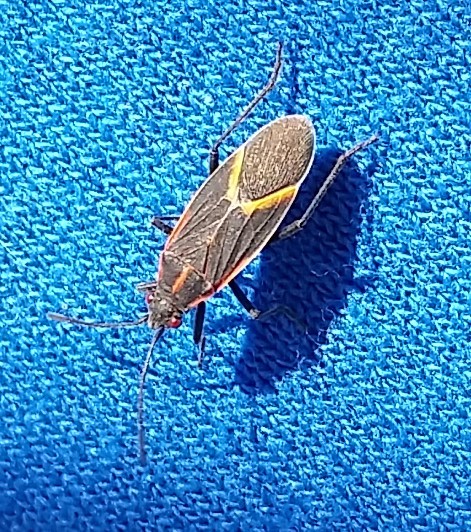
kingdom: Animalia
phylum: Arthropoda
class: Insecta
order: Hemiptera
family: Rhopalidae
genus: Boisea
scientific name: Boisea trivittata
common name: Boxelder bug
